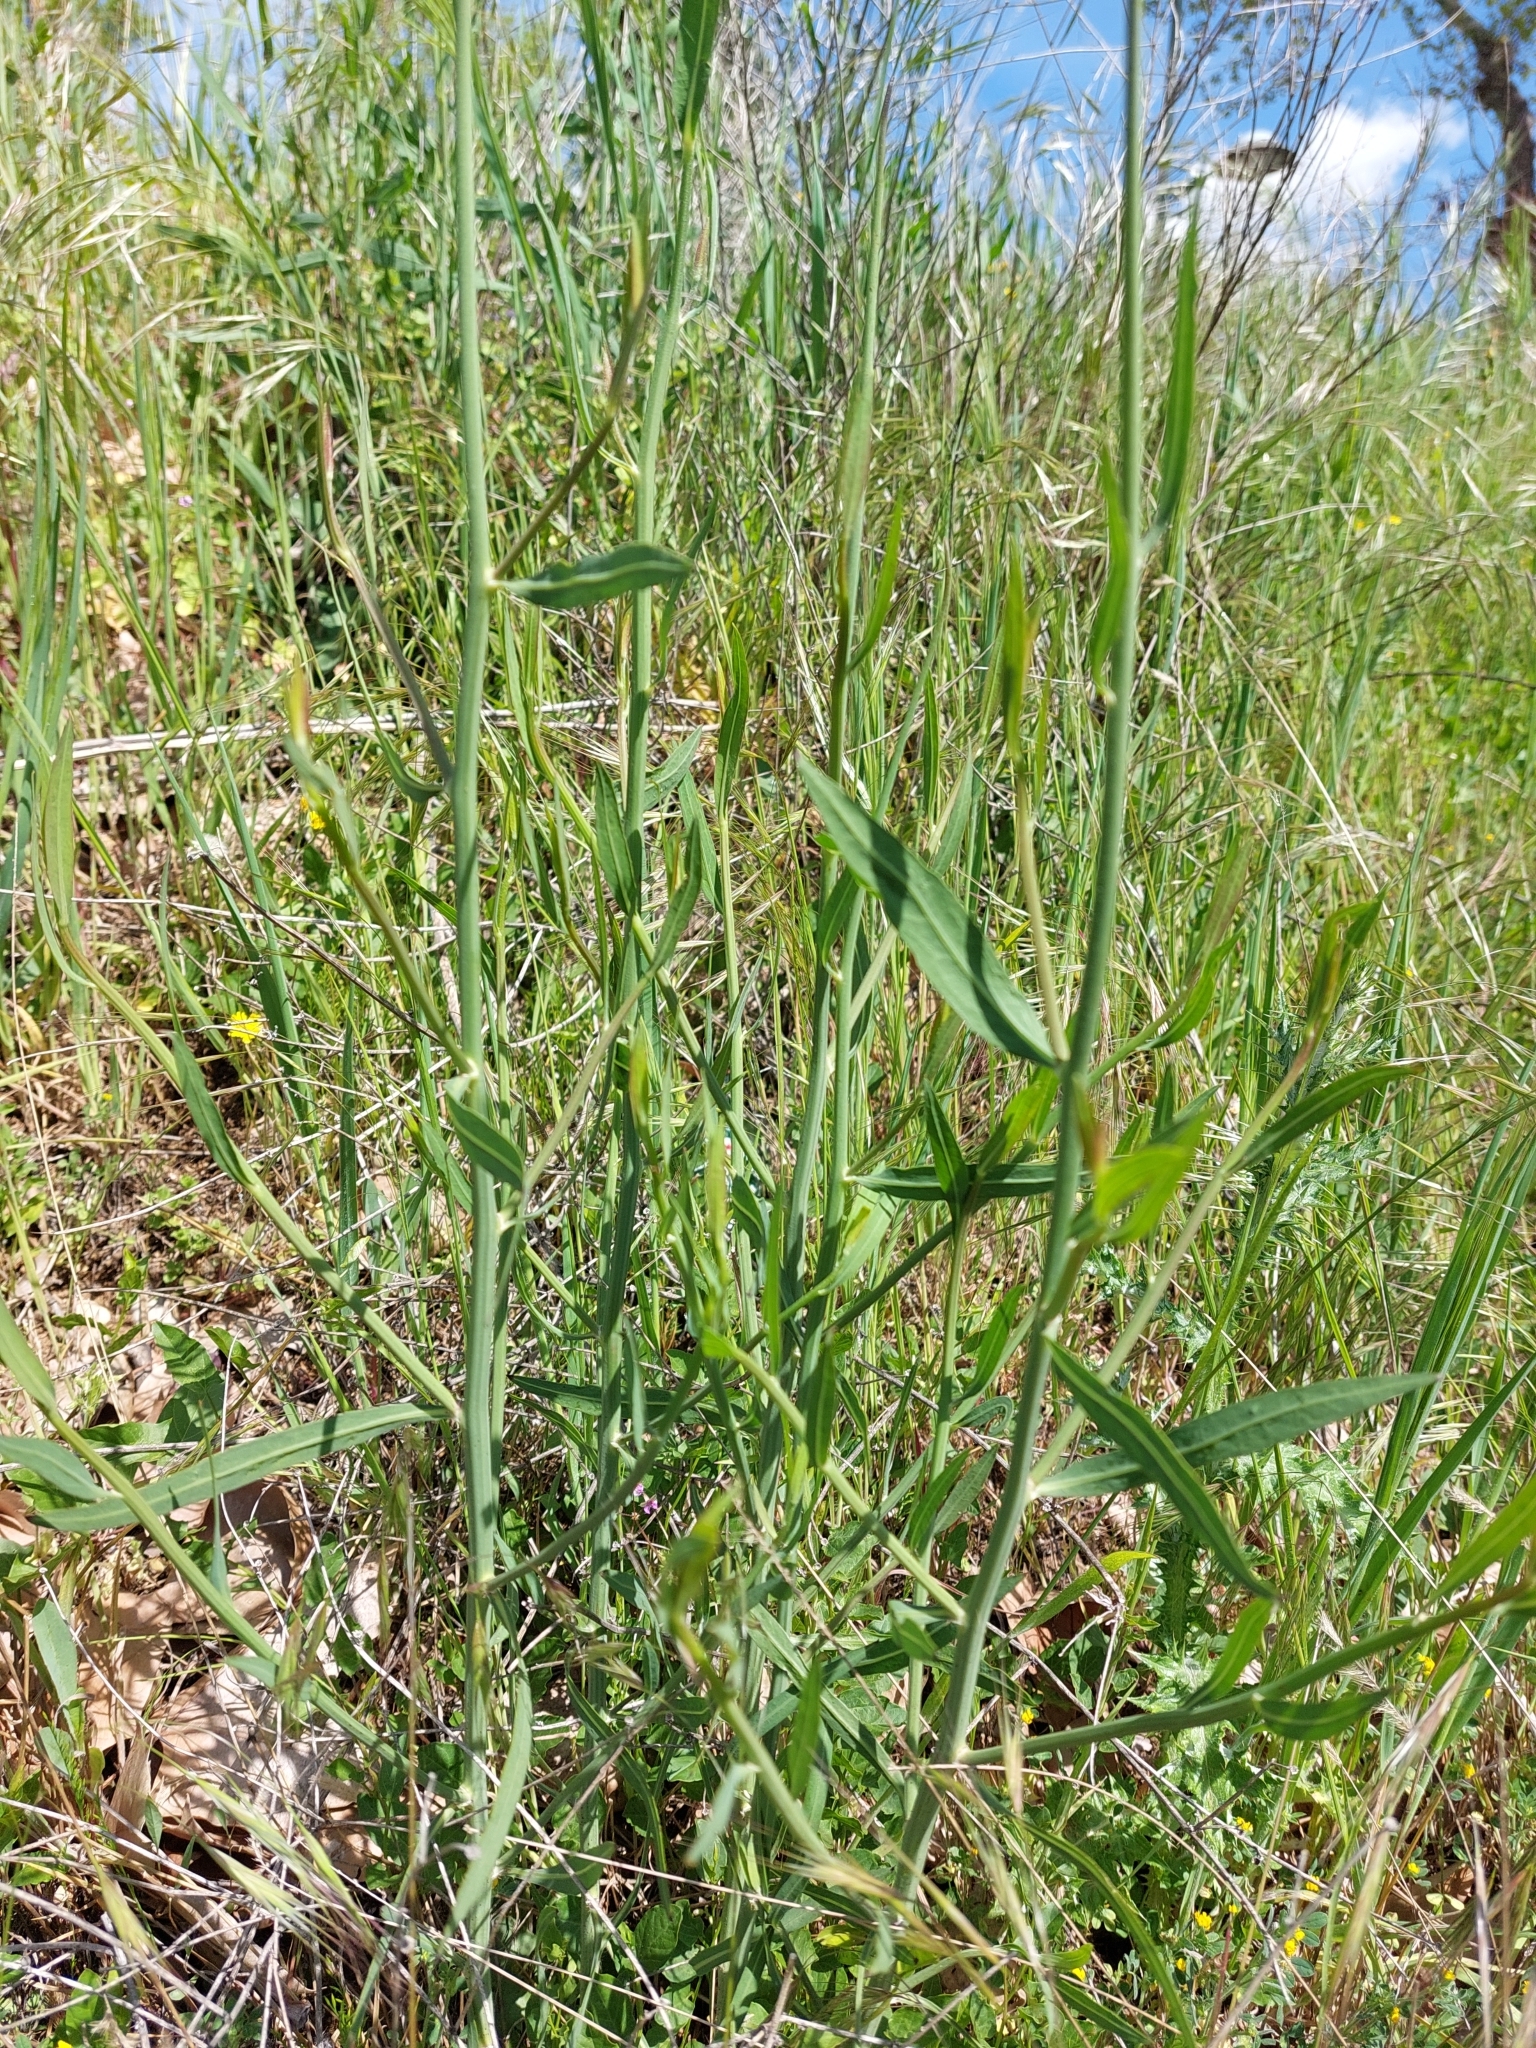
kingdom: Plantae
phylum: Tracheophyta
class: Magnoliopsida
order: Asterales
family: Asteraceae
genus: Chondrilla
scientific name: Chondrilla juncea
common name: Skeleton weed
